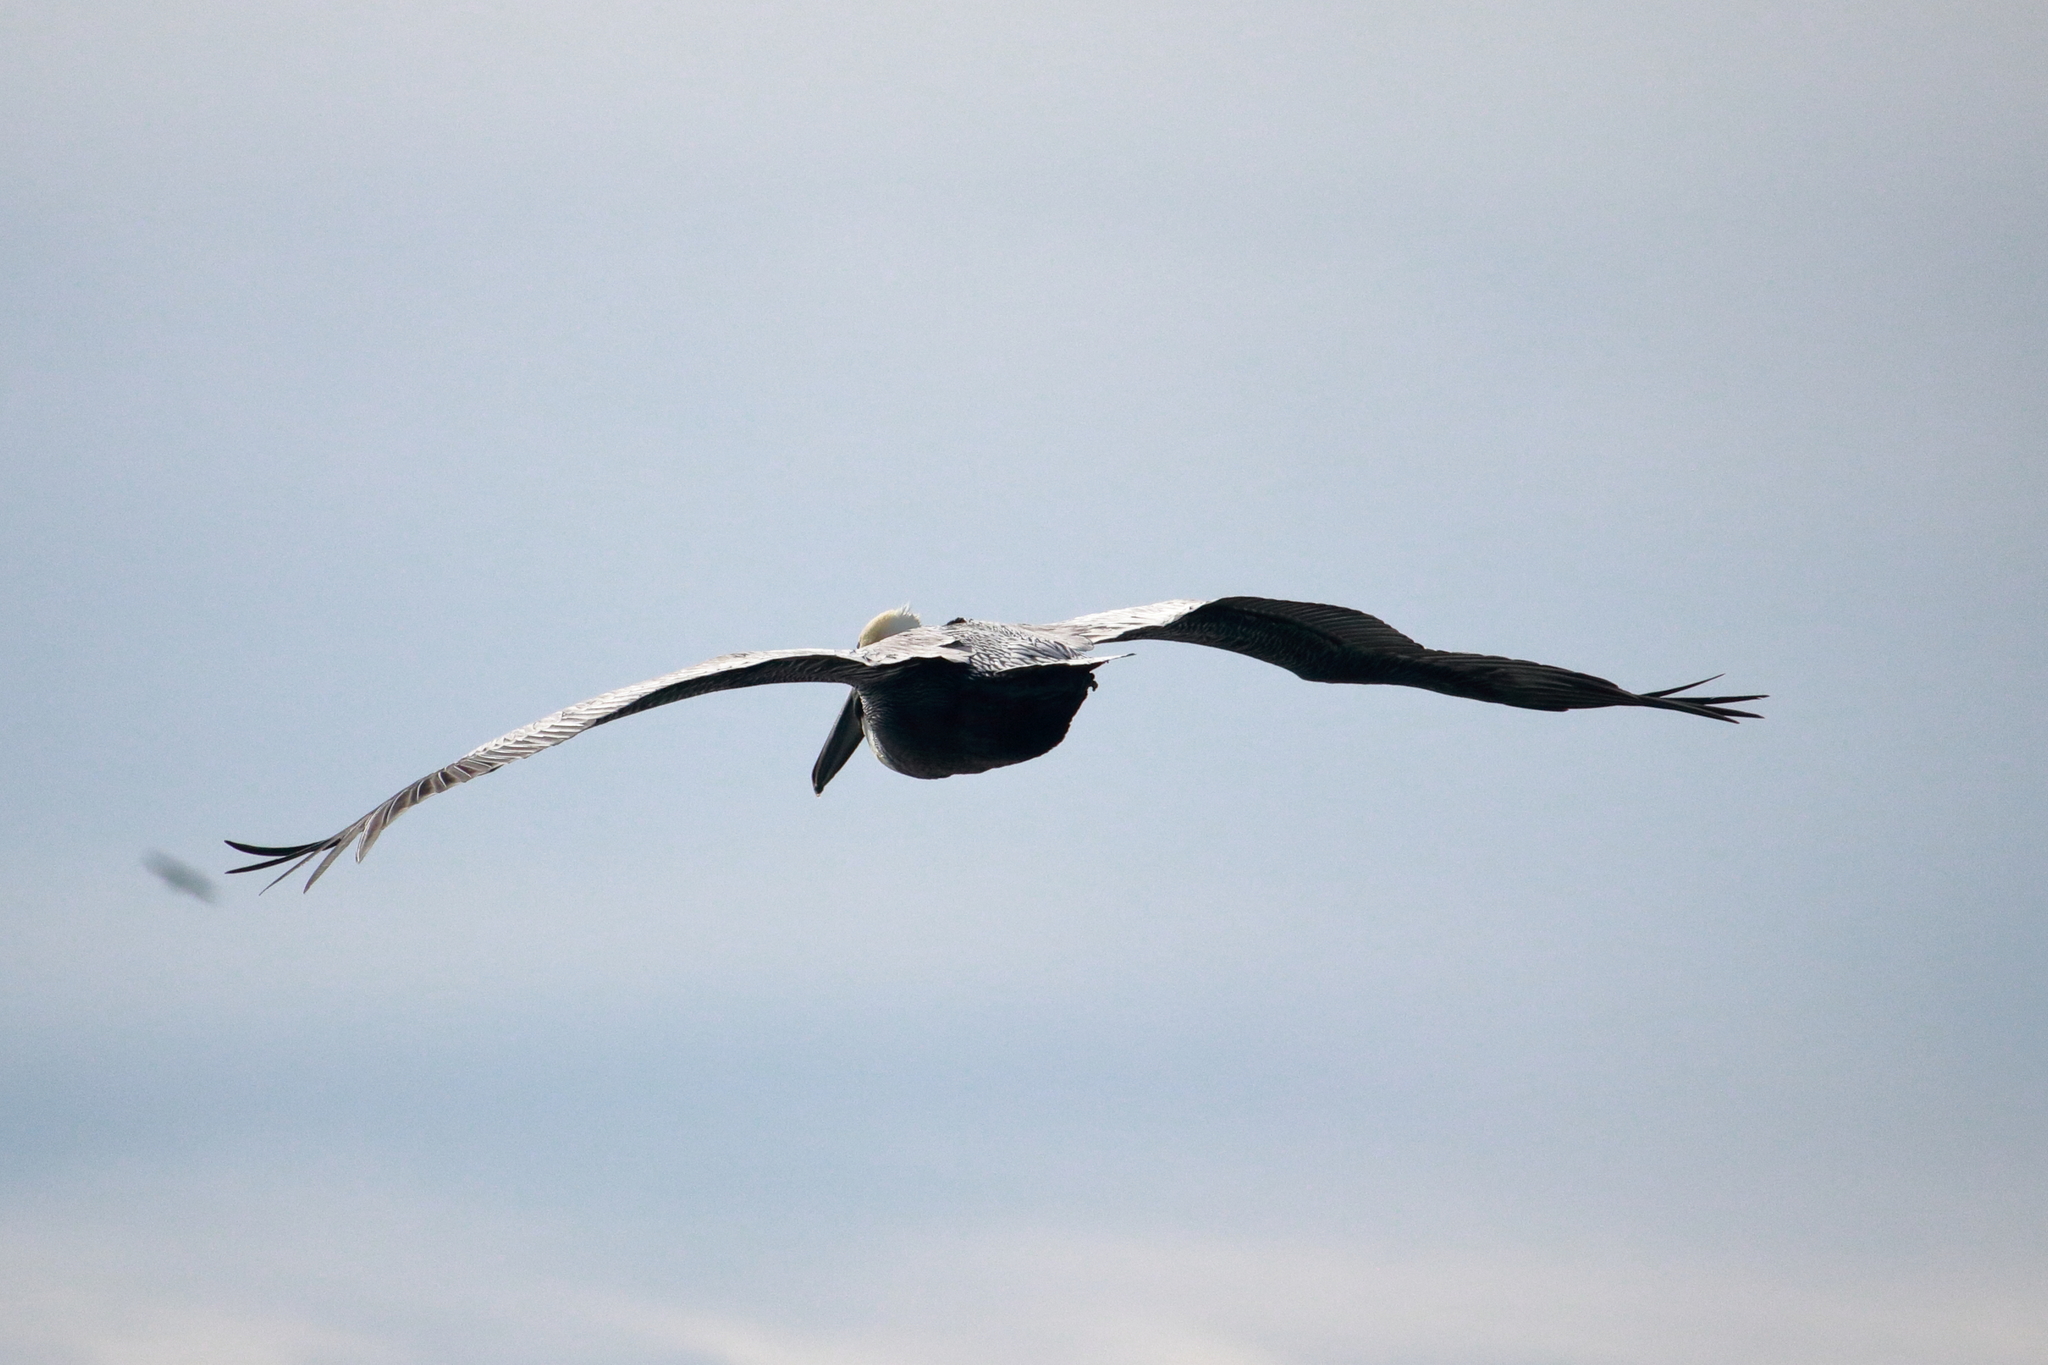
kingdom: Animalia
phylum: Chordata
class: Aves
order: Pelecaniformes
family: Pelecanidae
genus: Pelecanus
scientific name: Pelecanus occidentalis
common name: Brown pelican
